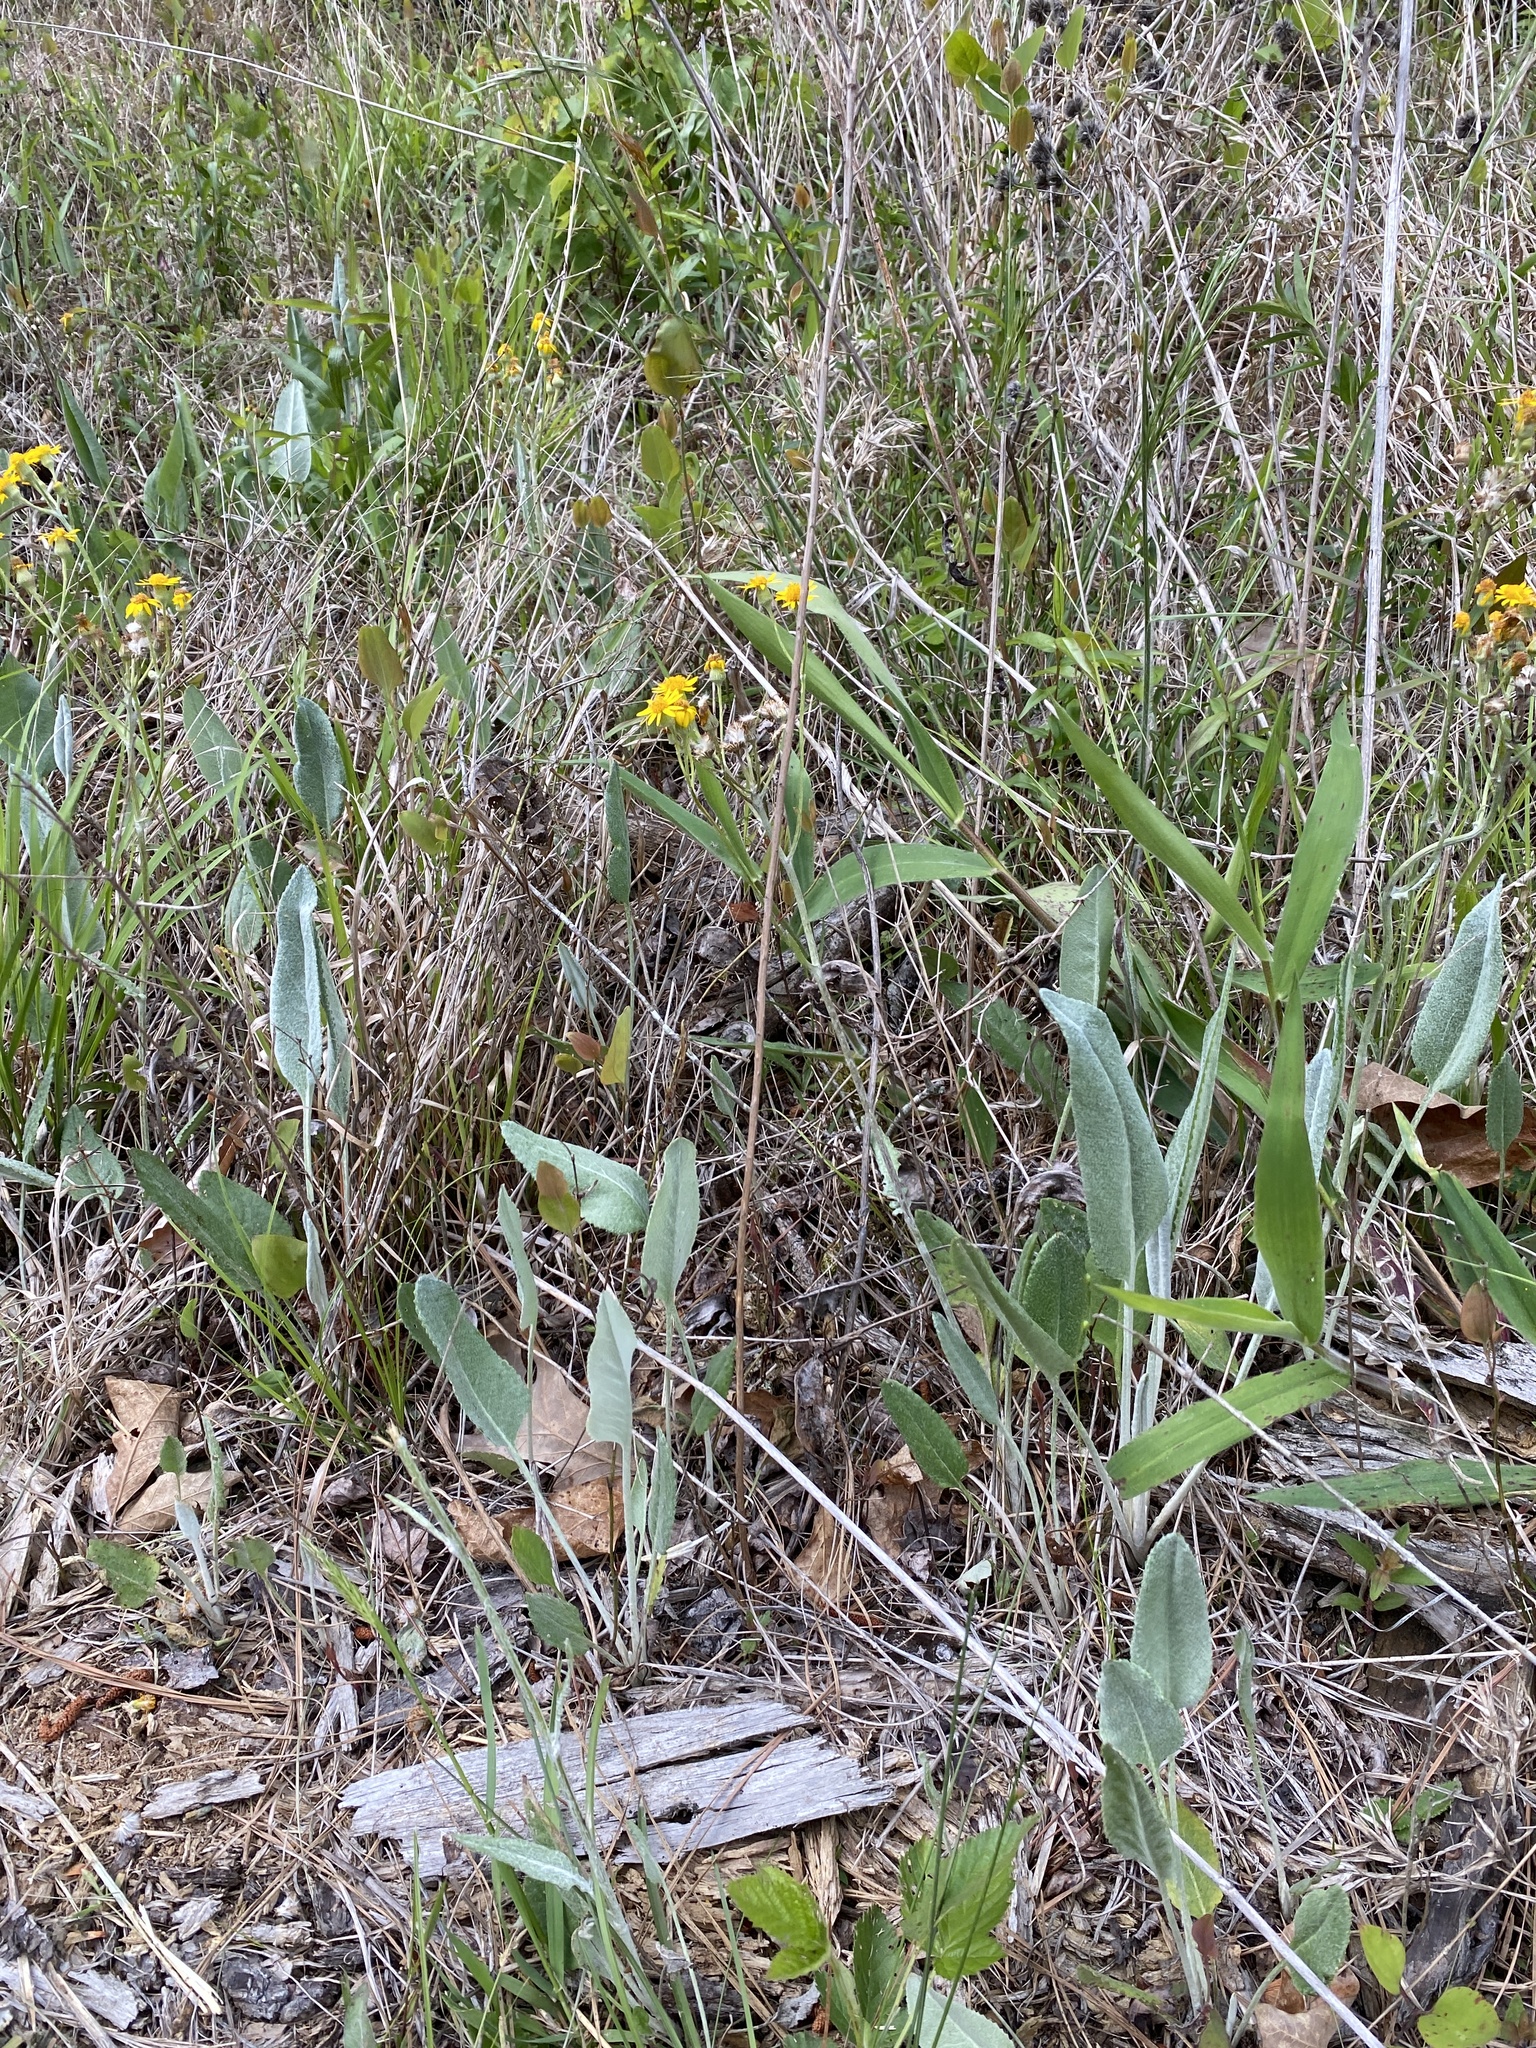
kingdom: Plantae
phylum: Tracheophyta
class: Magnoliopsida
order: Asterales
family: Asteraceae
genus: Packera
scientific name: Packera dubia
